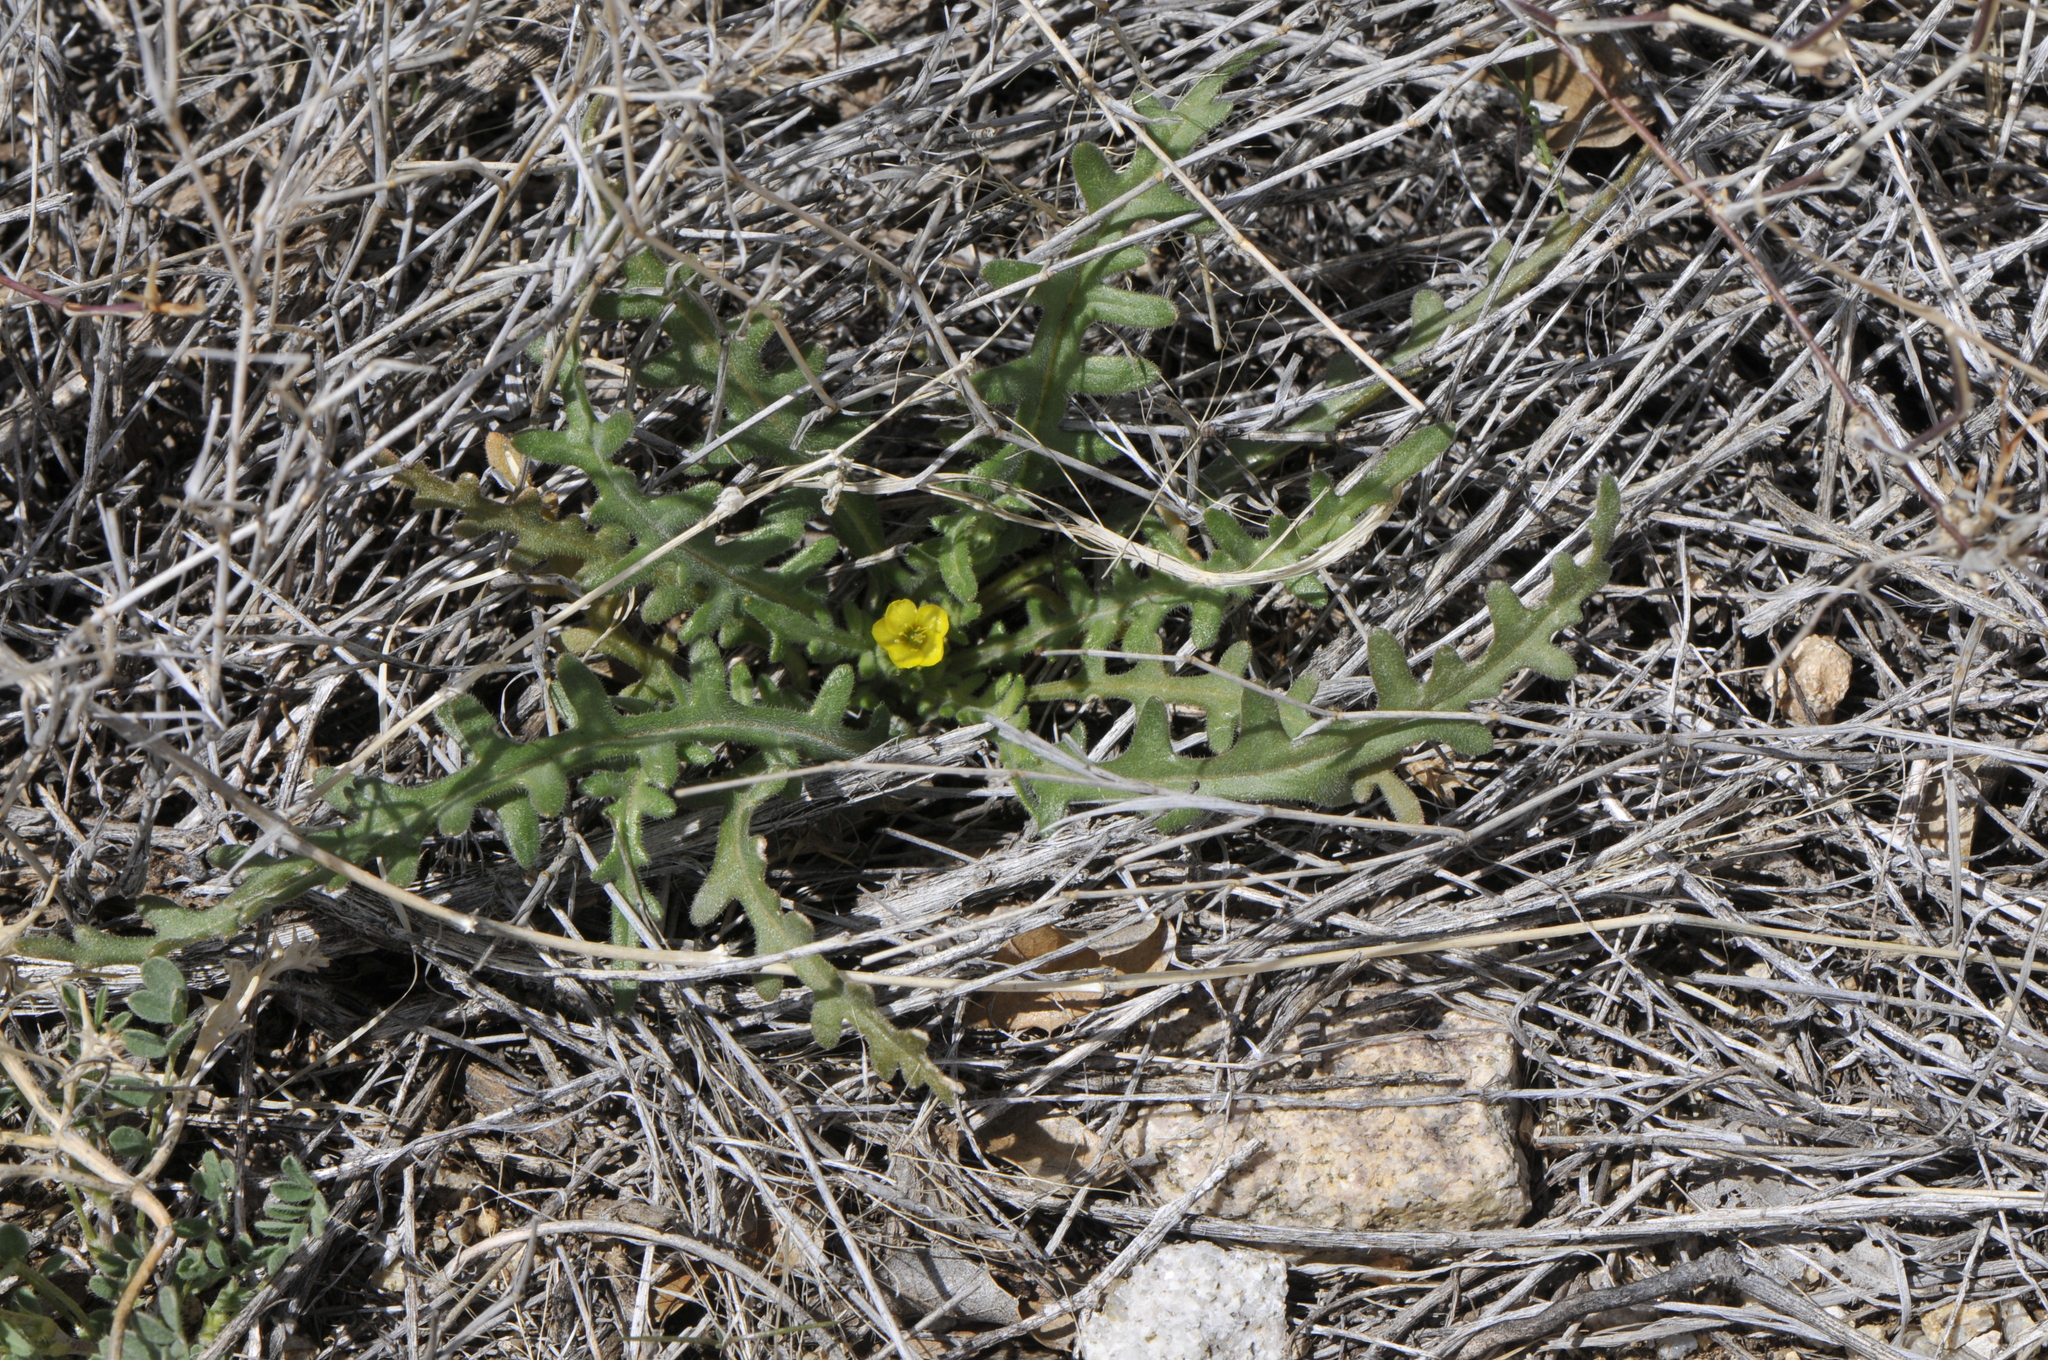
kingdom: Plantae
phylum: Tracheophyta
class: Magnoliopsida
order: Cornales
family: Loasaceae
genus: Mentzelia
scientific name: Mentzelia albicaulis
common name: White-stem blazingstar
